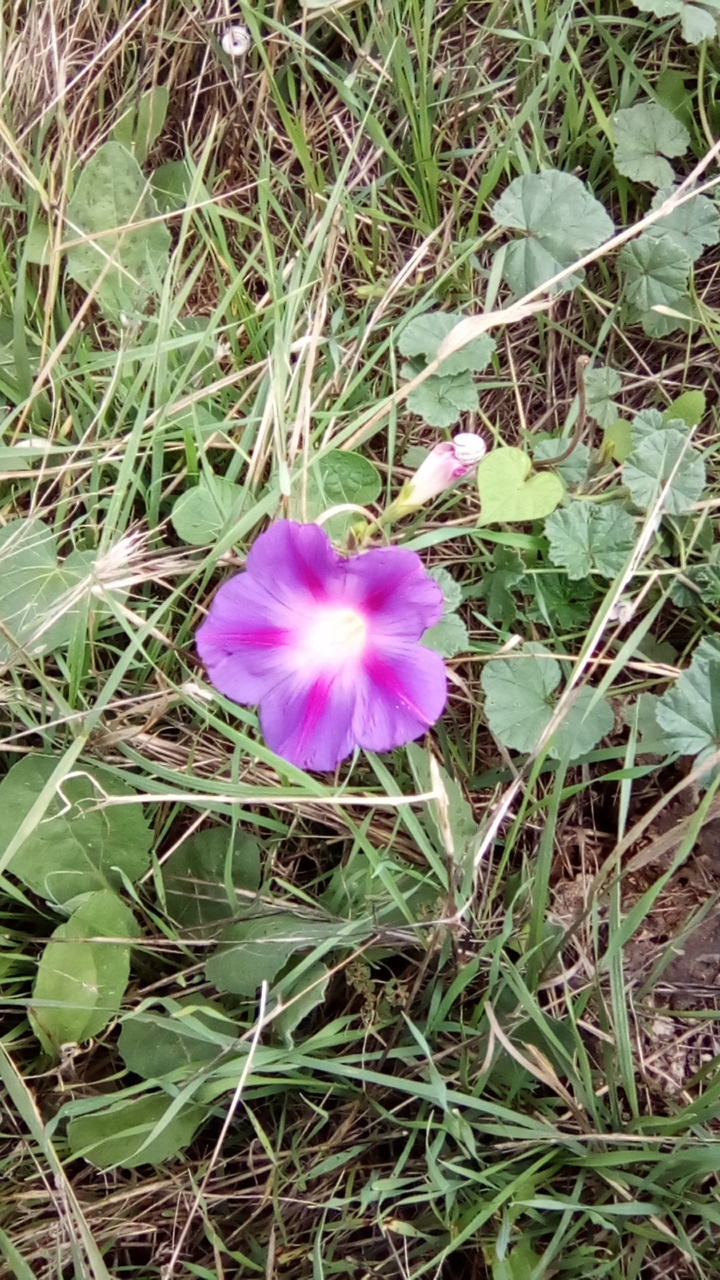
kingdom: Plantae
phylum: Tracheophyta
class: Magnoliopsida
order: Solanales
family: Convolvulaceae
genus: Ipomoea
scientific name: Ipomoea purpurea
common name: Common morning-glory
